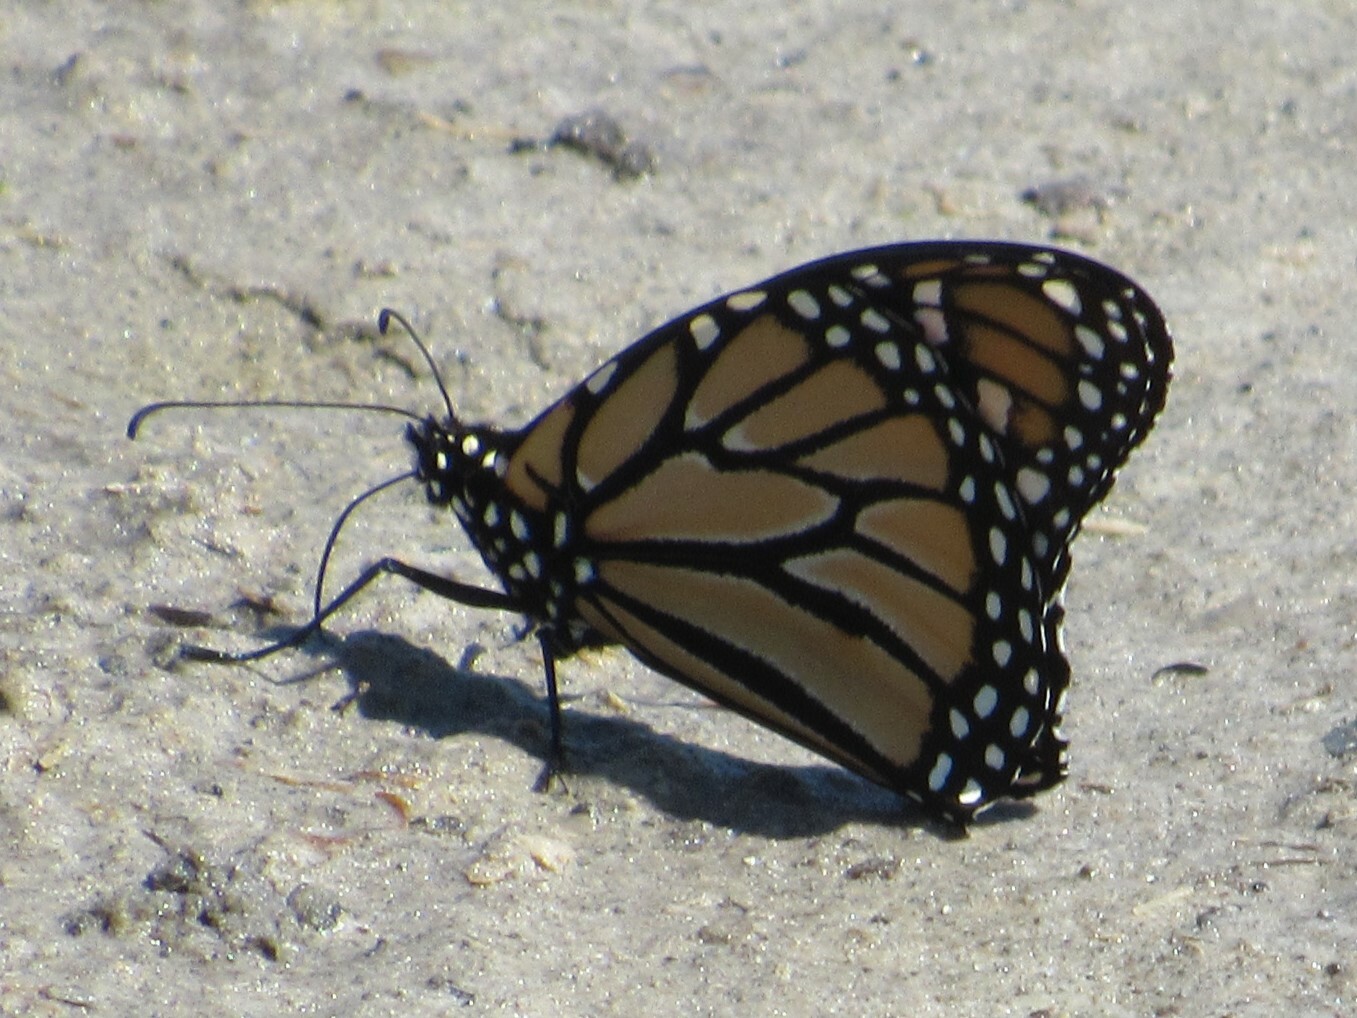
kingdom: Animalia
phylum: Arthropoda
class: Insecta
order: Lepidoptera
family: Nymphalidae
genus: Danaus
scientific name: Danaus plexippus
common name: Monarch
